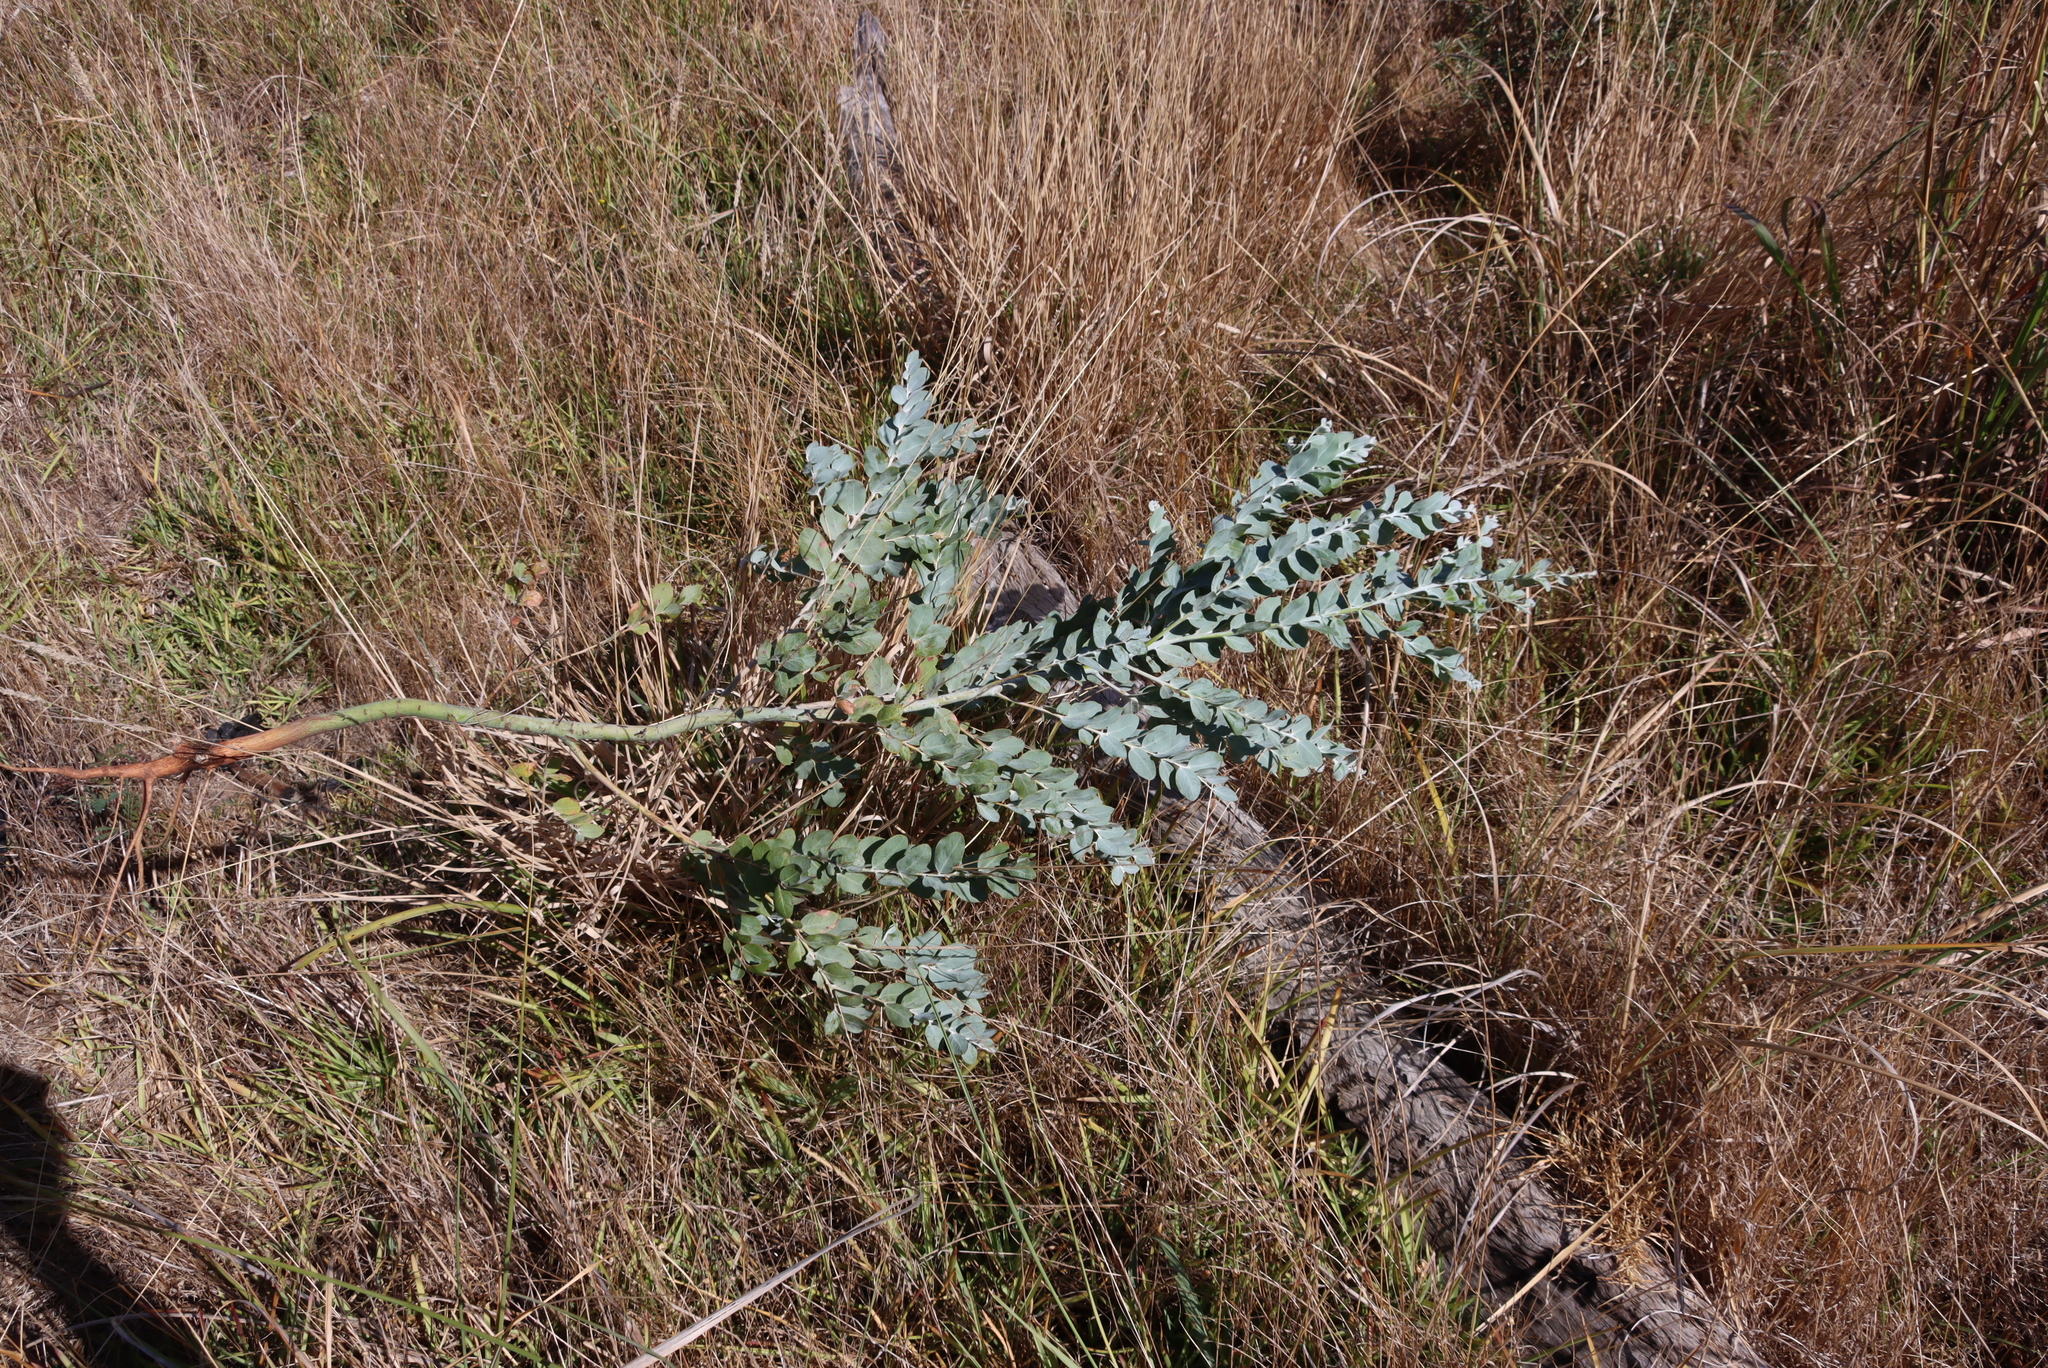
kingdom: Plantae
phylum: Tracheophyta
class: Magnoliopsida
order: Fabales
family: Fabaceae
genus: Acacia
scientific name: Acacia podalyriifolia
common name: Pearl wattle
